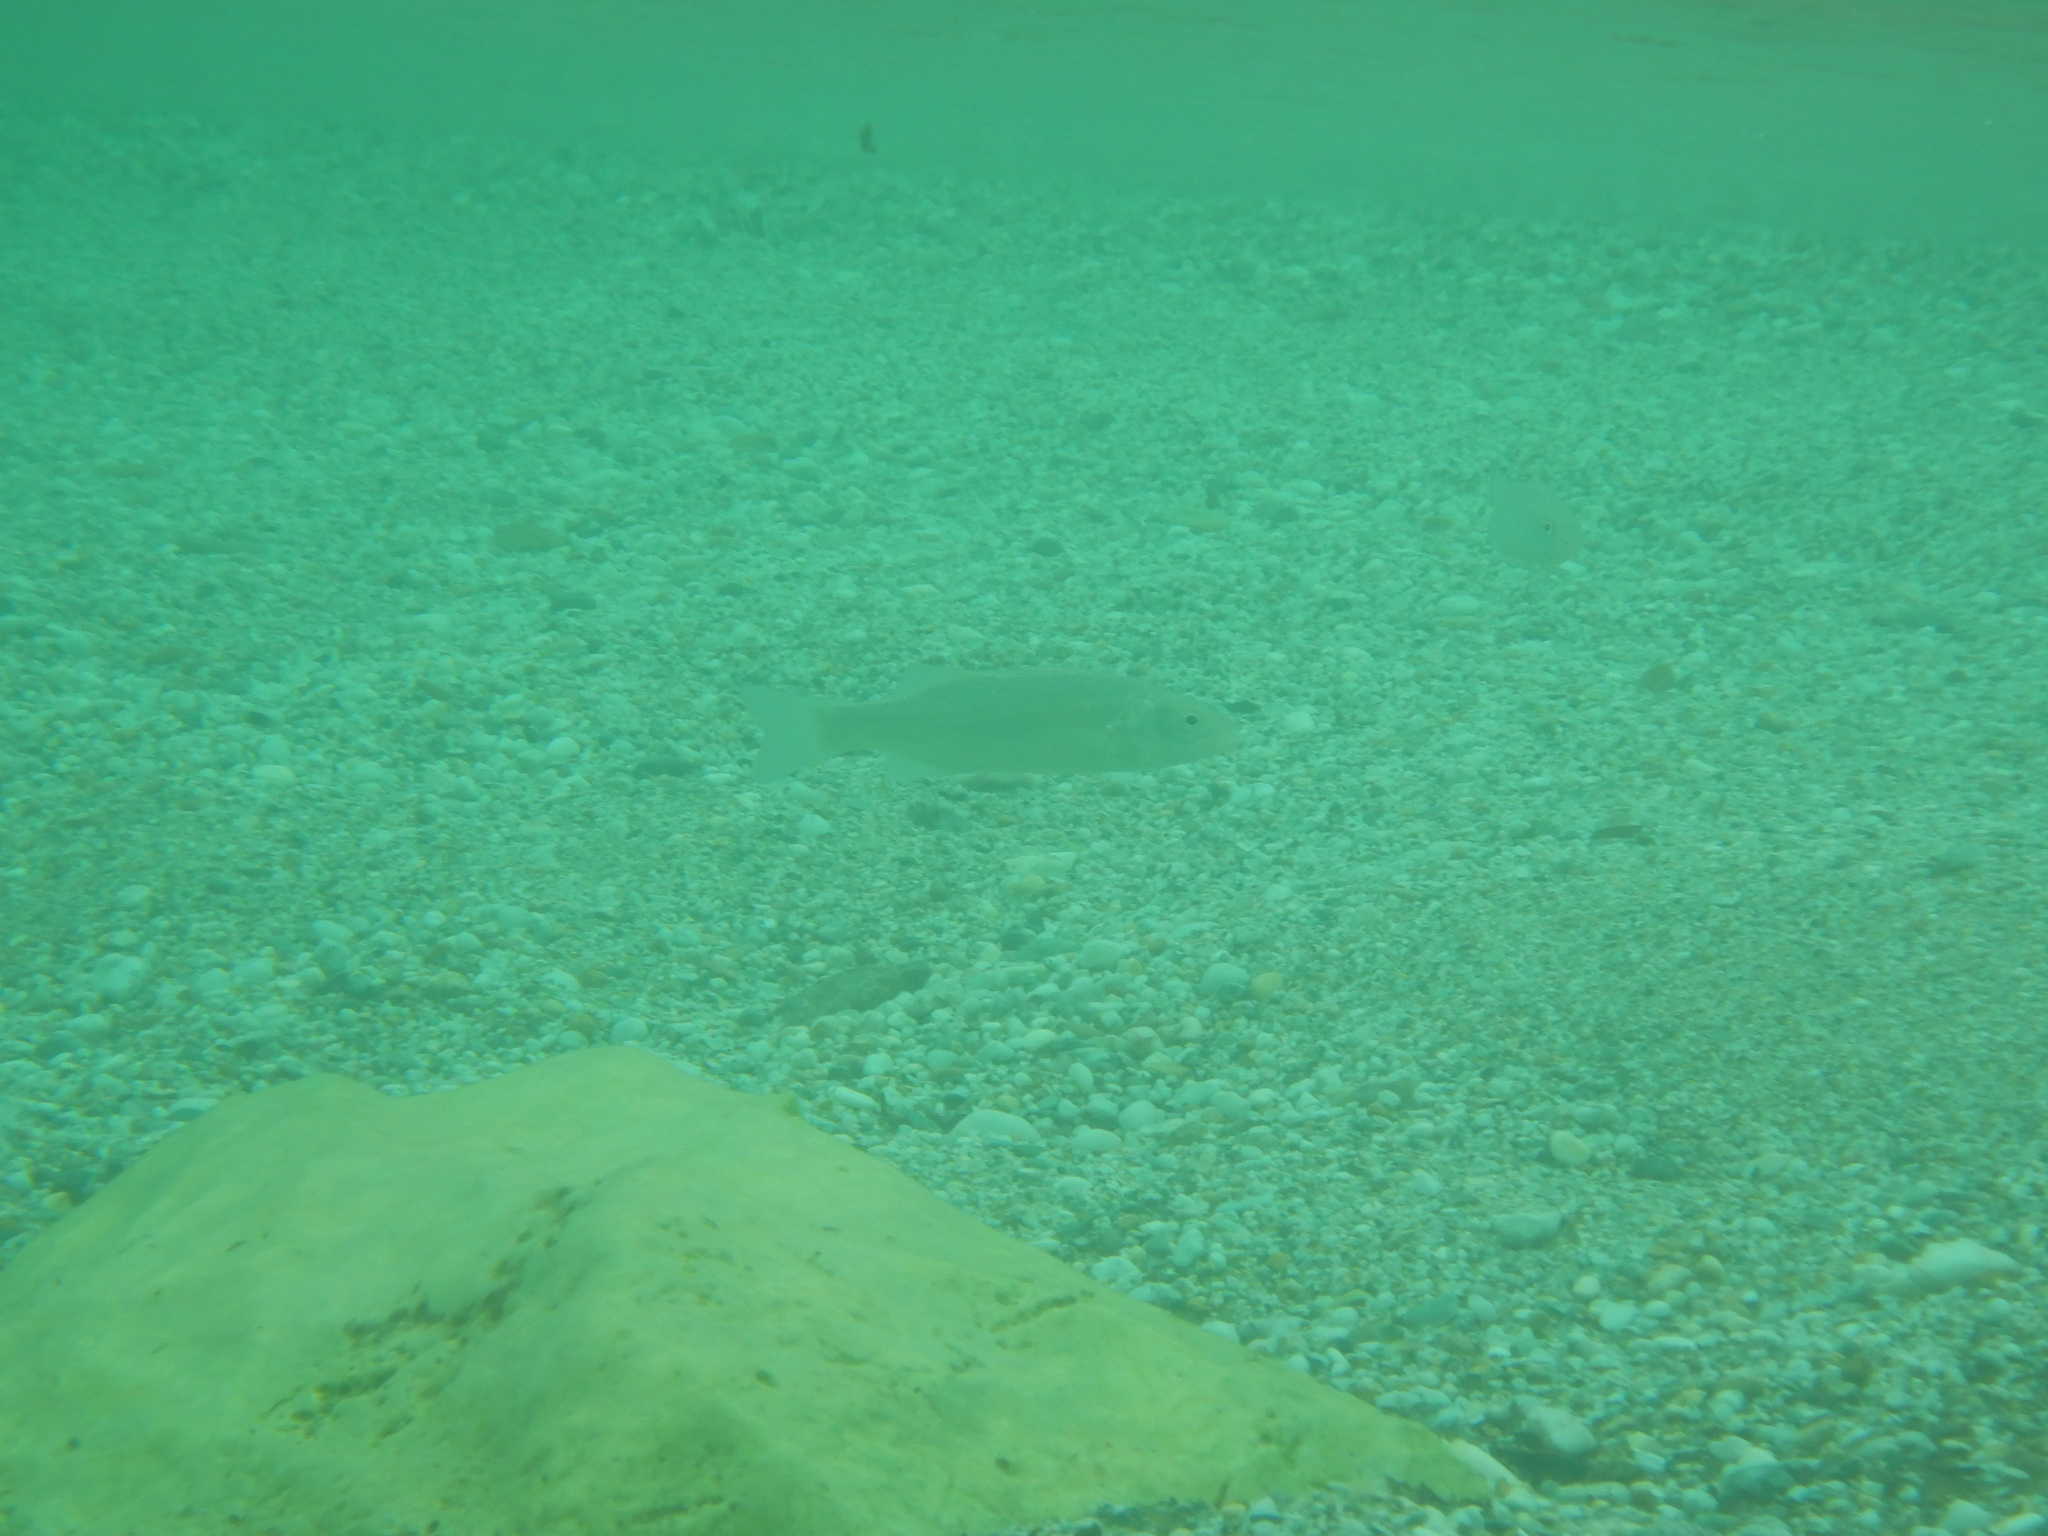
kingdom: Animalia
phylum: Chordata
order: Perciformes
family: Moronidae
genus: Dicentrarchus
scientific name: Dicentrarchus labrax
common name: European seabass
